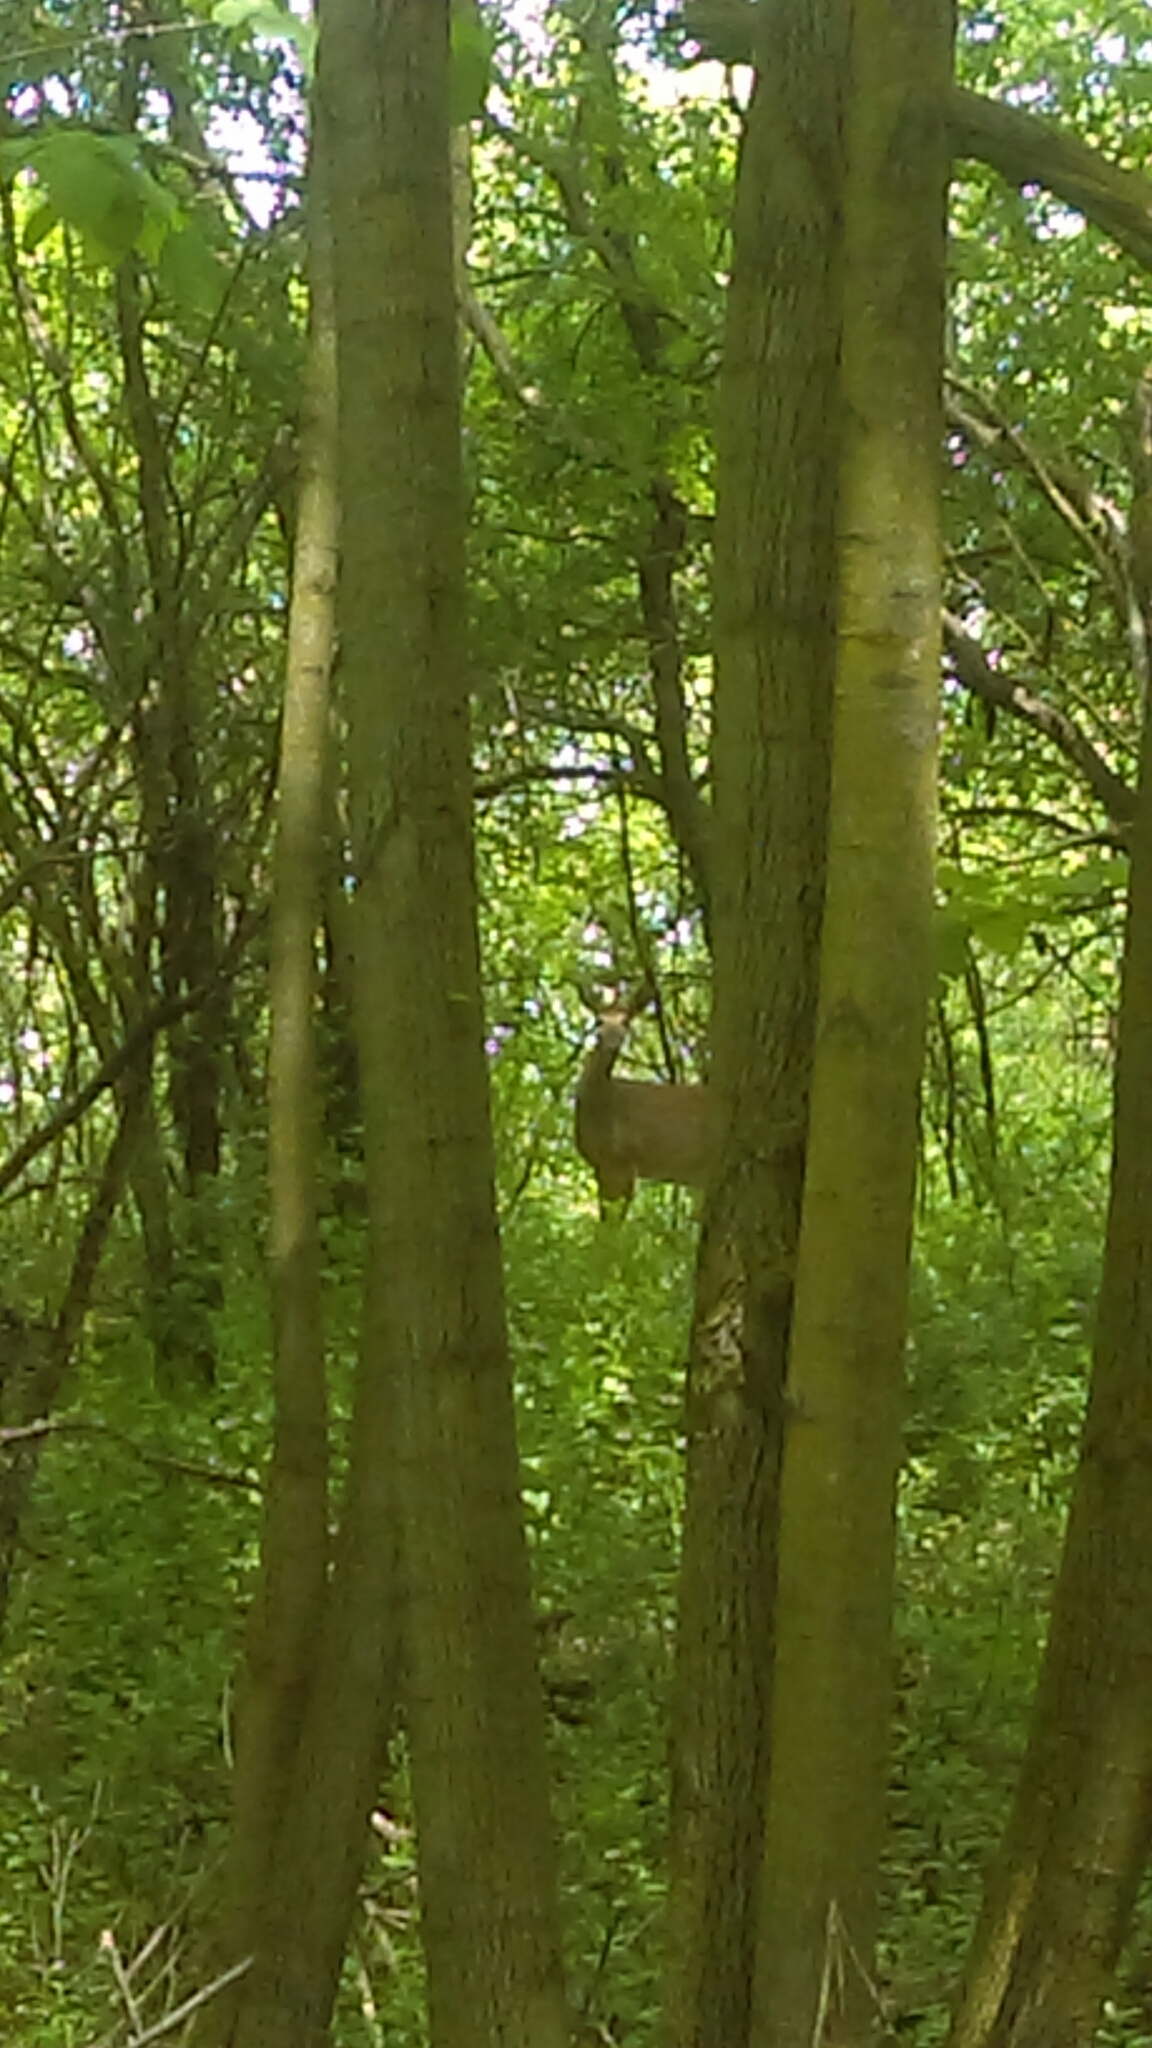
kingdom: Animalia
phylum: Chordata
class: Mammalia
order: Artiodactyla
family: Cervidae
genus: Odocoileus
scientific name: Odocoileus virginianus
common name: White-tailed deer
